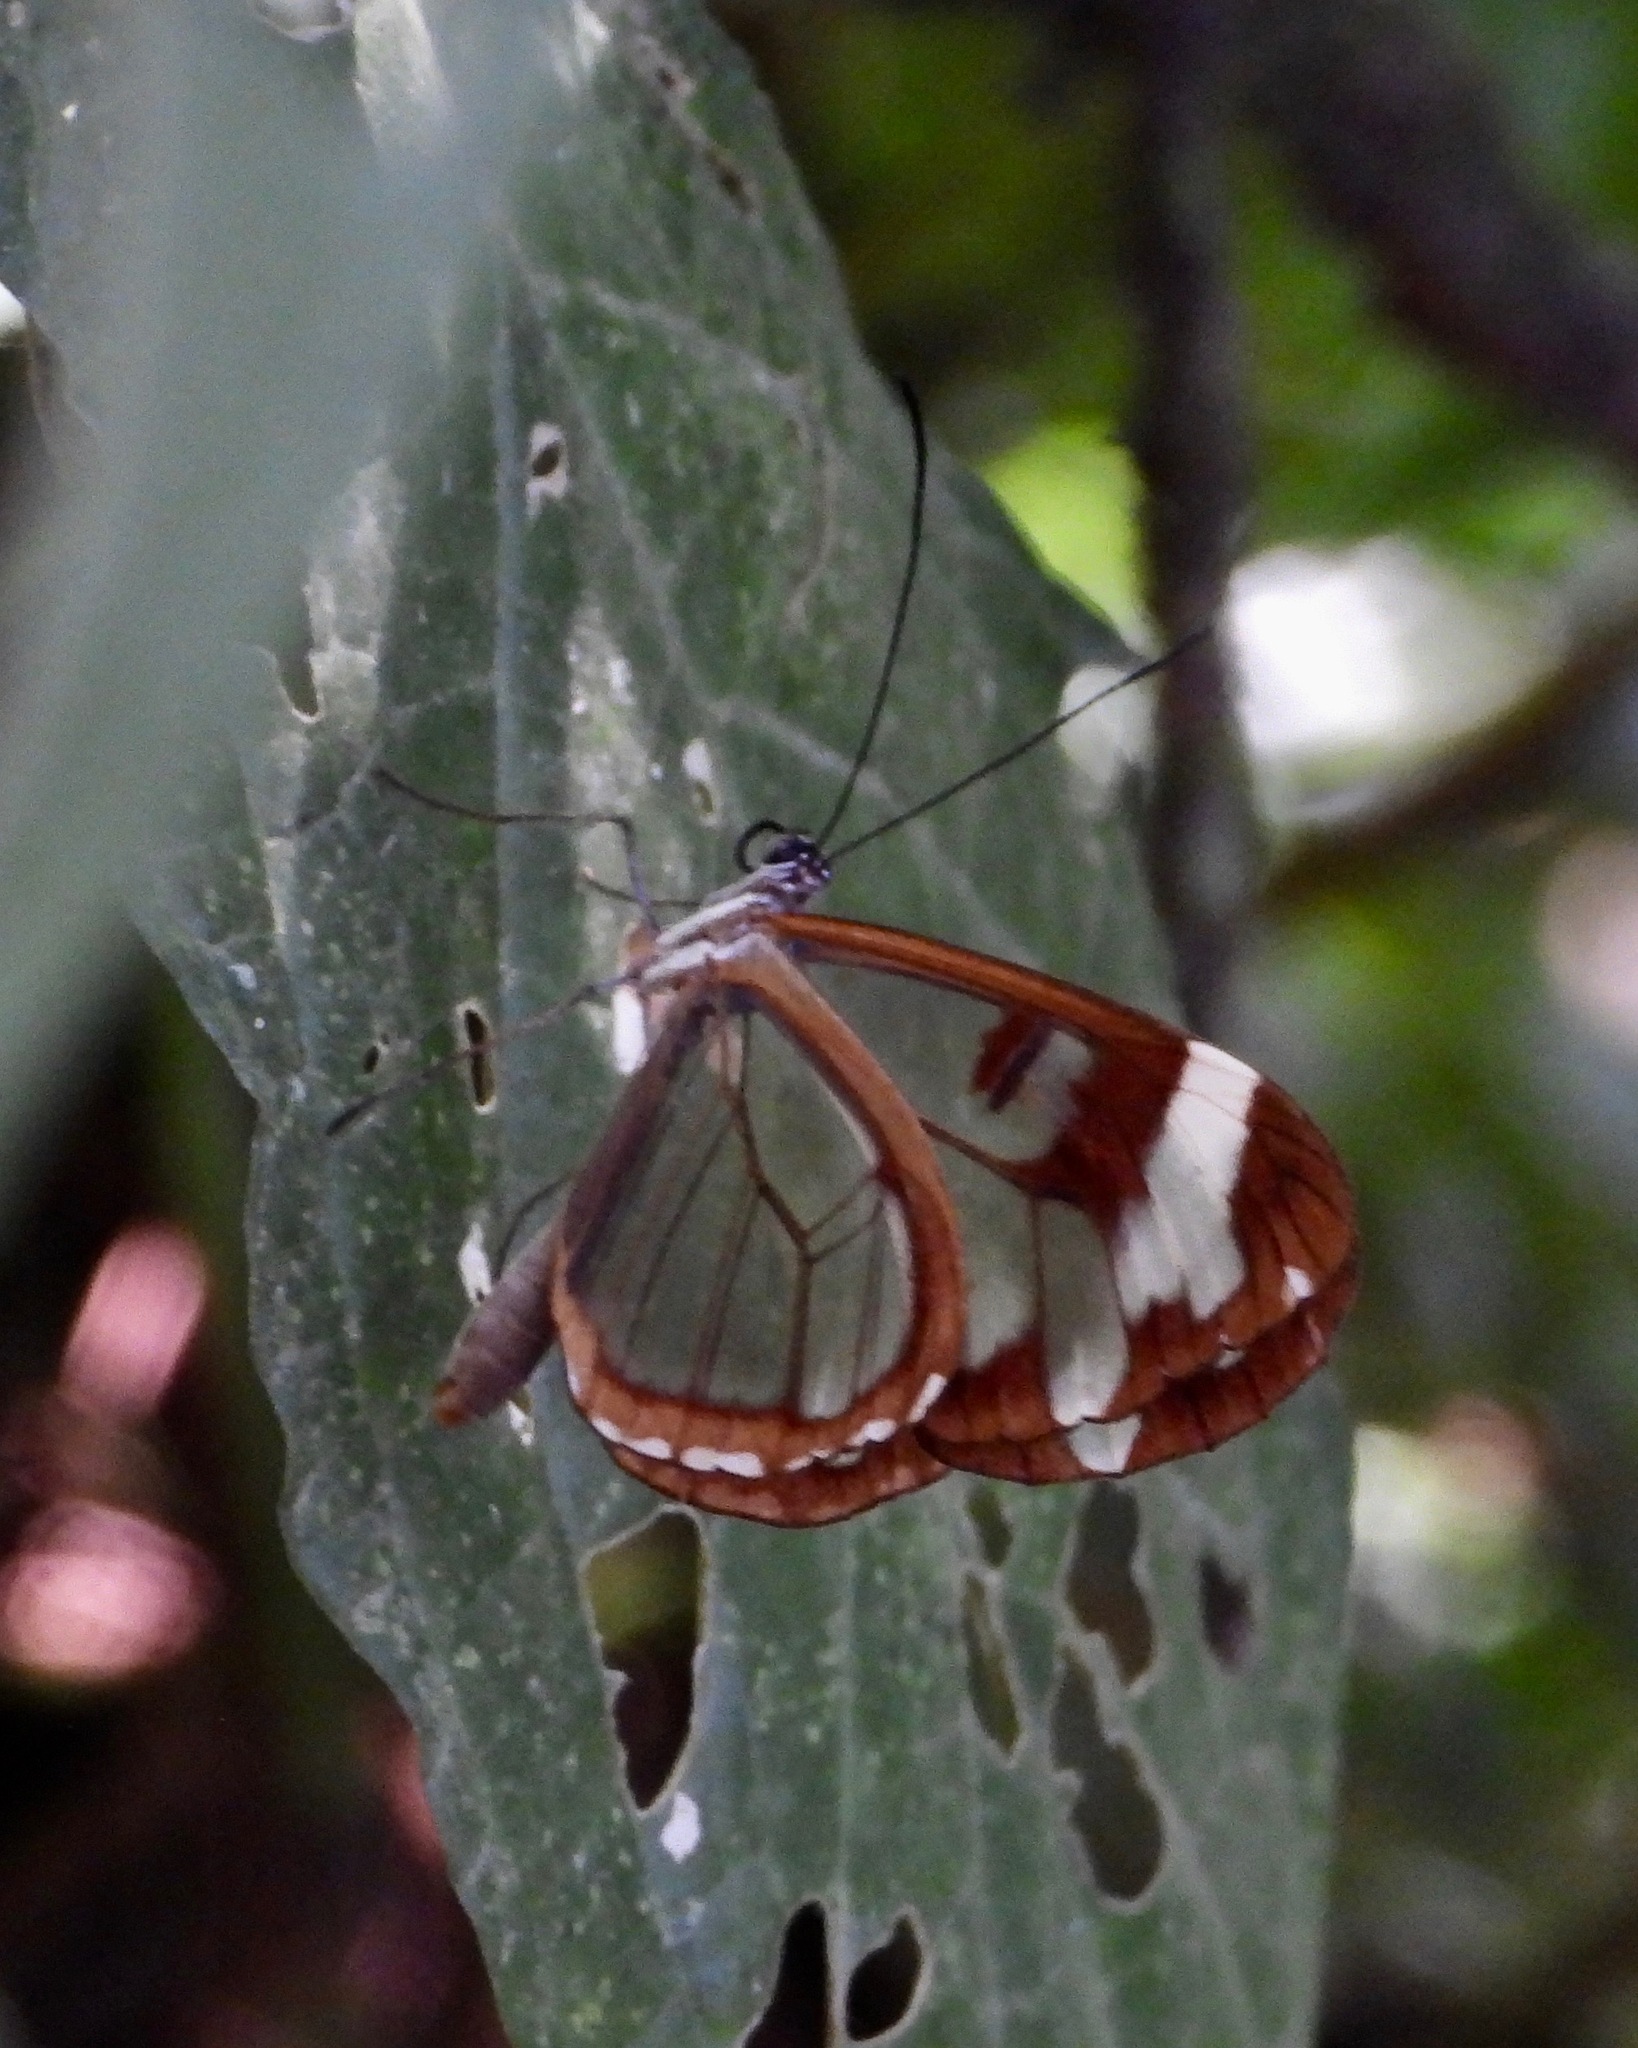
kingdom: Animalia
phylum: Arthropoda
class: Insecta
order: Lepidoptera
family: Nymphalidae
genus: Oleria
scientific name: Oleria zea
